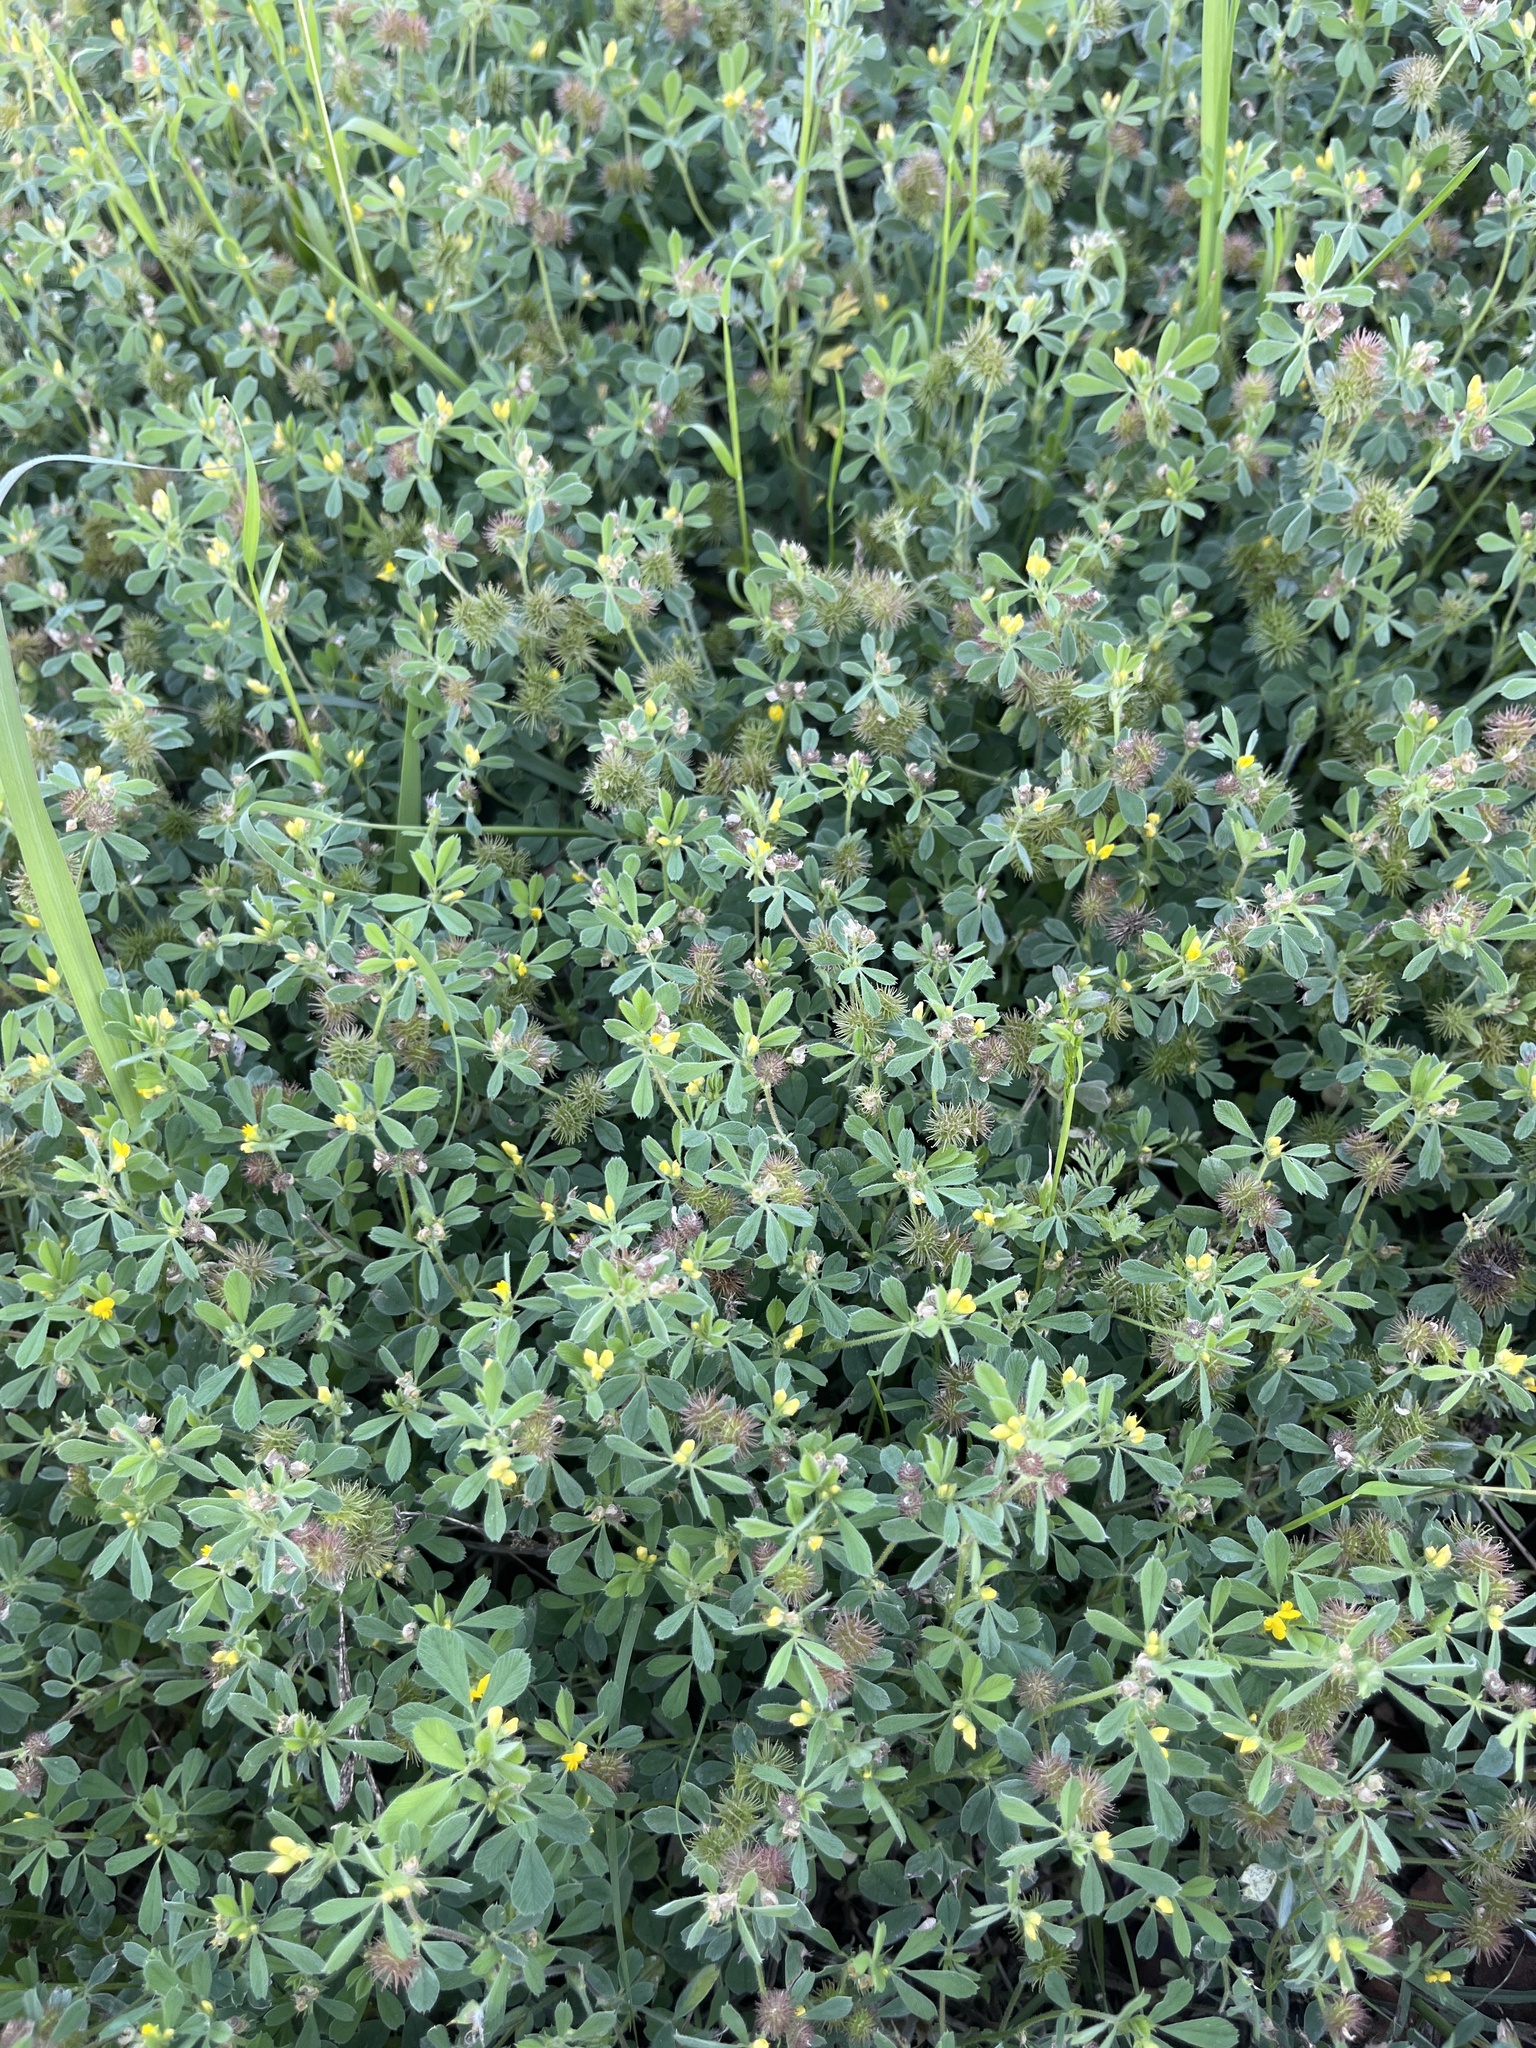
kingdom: Plantae
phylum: Tracheophyta
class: Magnoliopsida
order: Fabales
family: Fabaceae
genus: Medicago
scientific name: Medicago minima
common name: Little bur-clover
